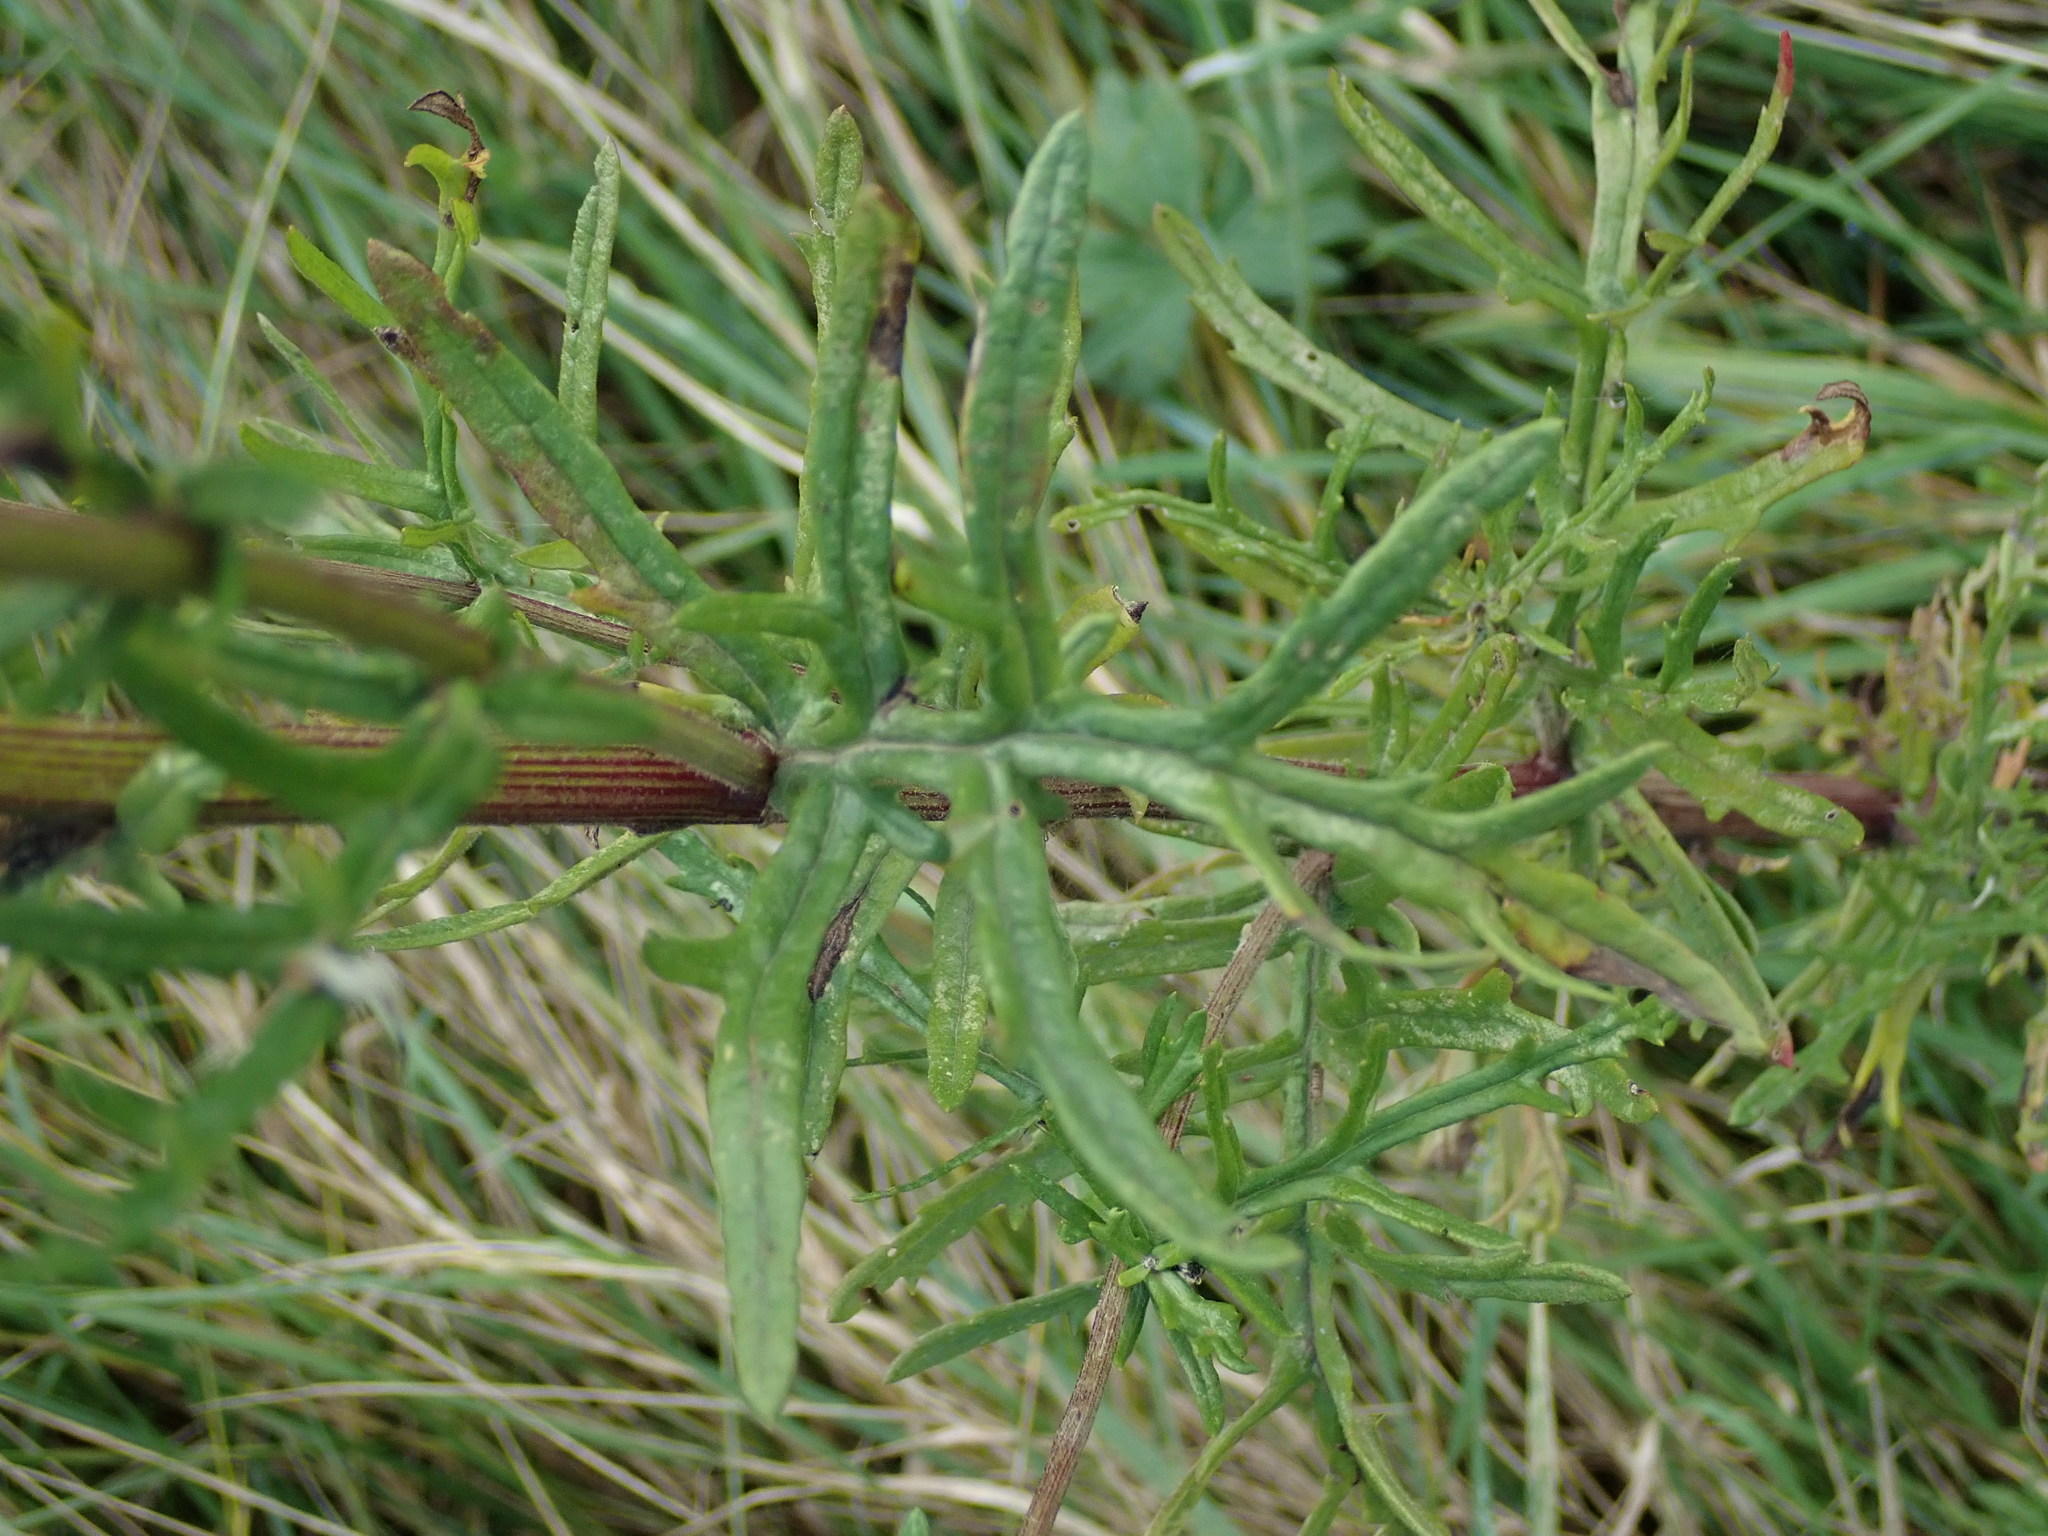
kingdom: Plantae
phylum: Tracheophyta
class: Magnoliopsida
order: Asterales
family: Asteraceae
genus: Jacobaea
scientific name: Jacobaea erucifolia
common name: Hoary ragwort
